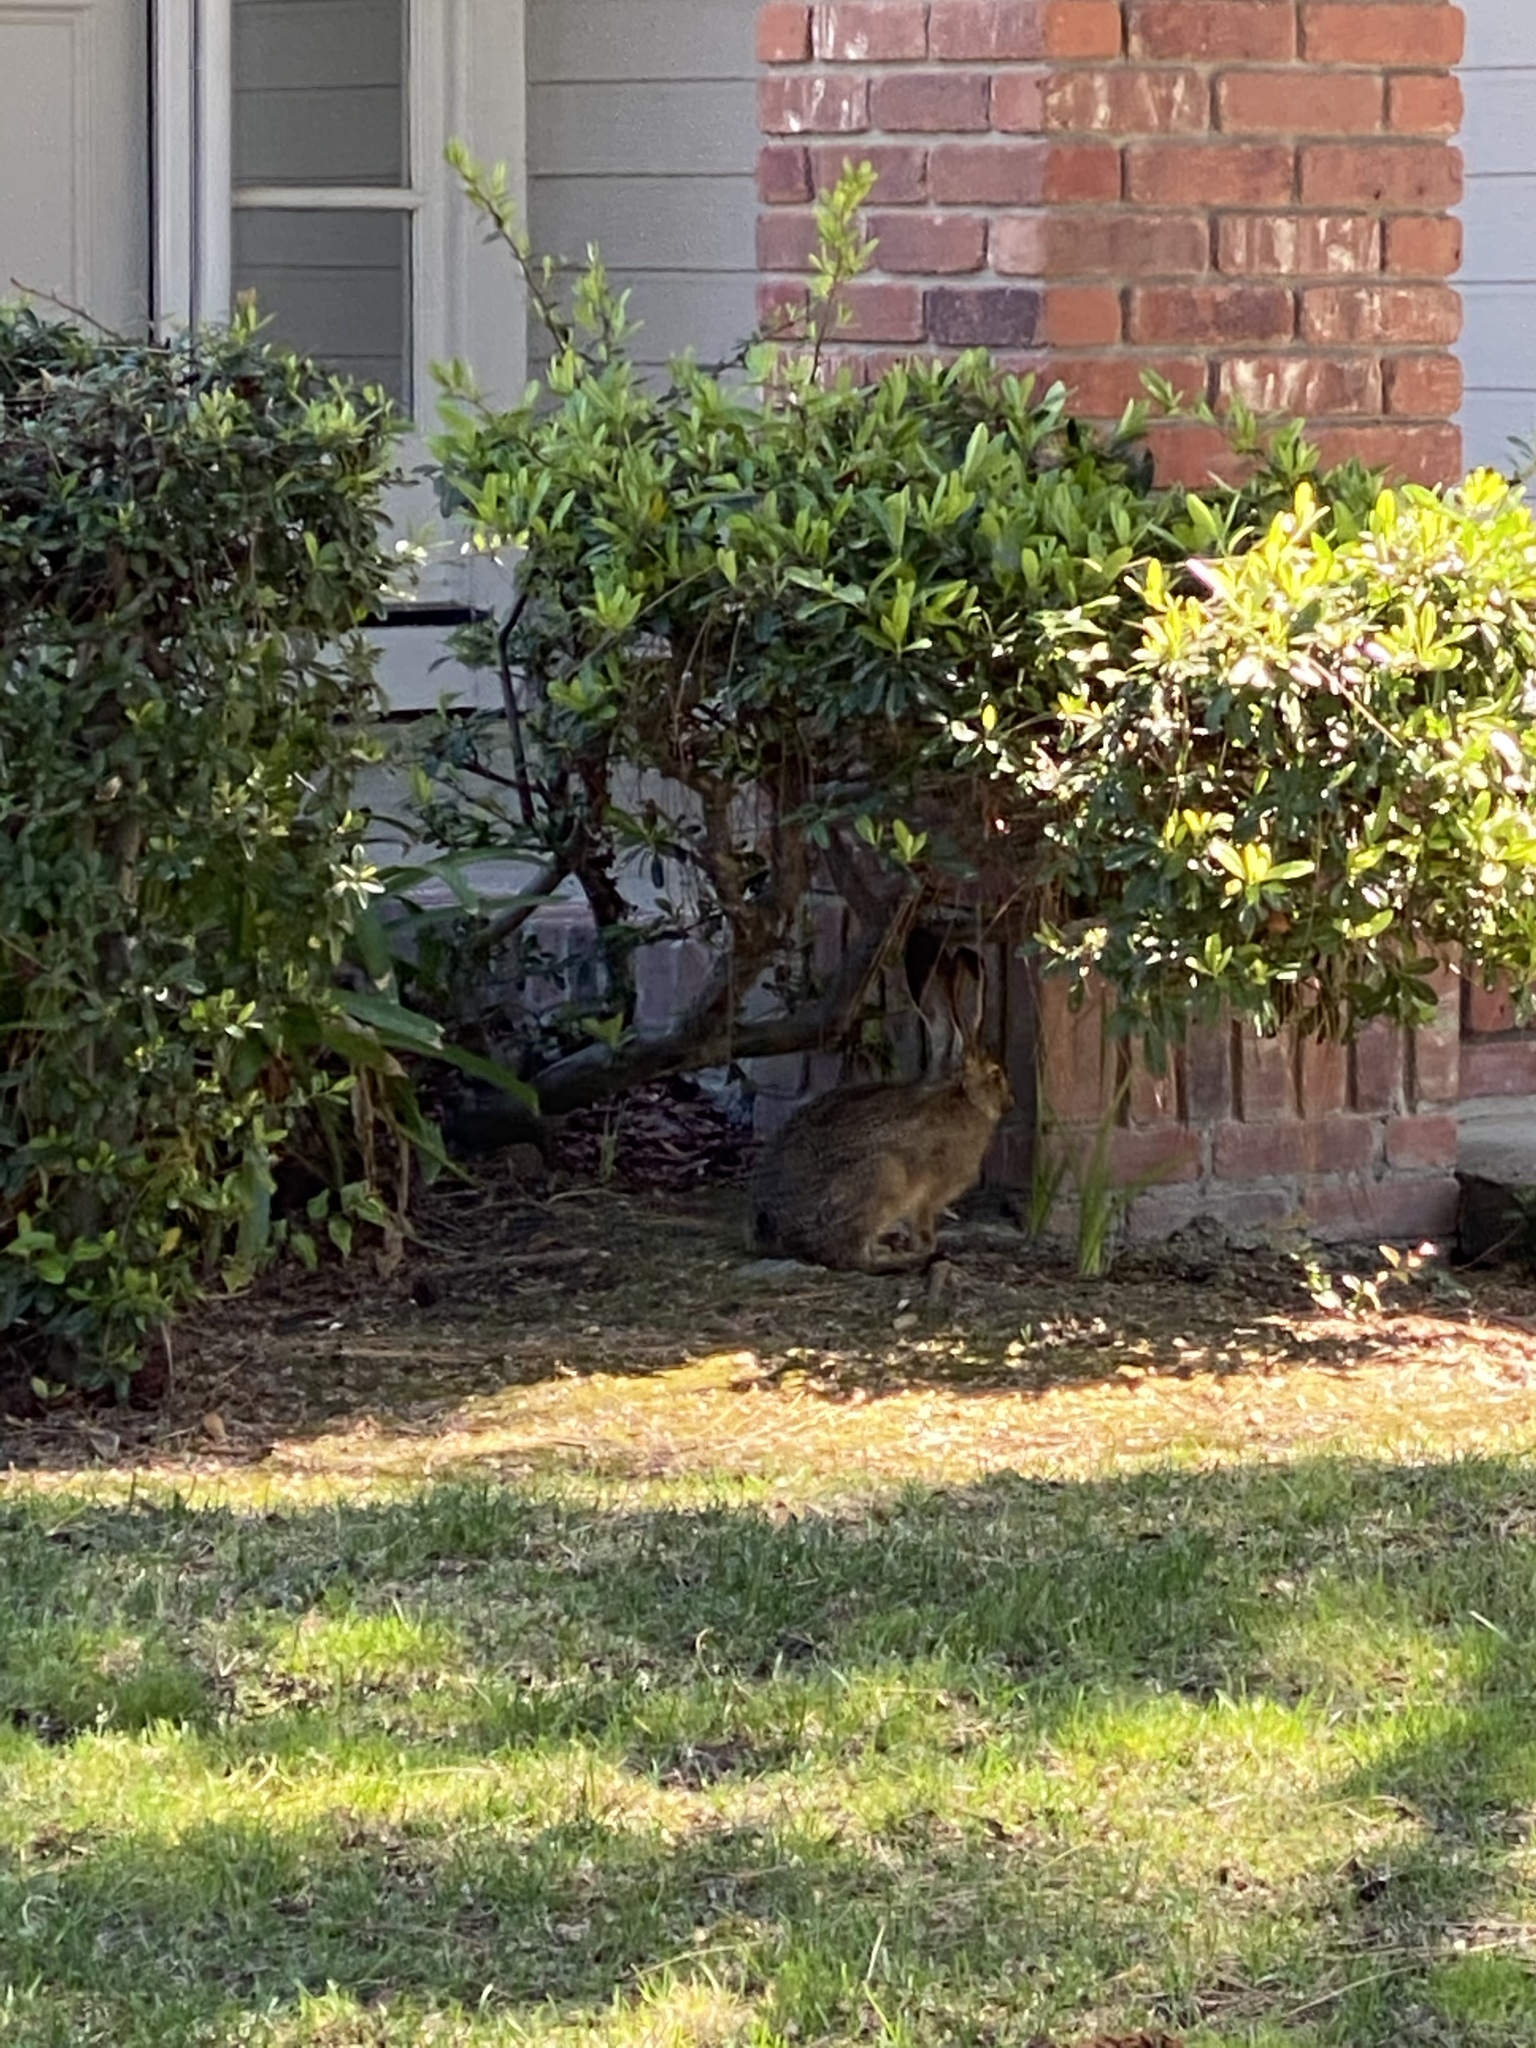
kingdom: Animalia
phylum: Chordata
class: Mammalia
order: Lagomorpha
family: Leporidae
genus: Lepus
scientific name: Lepus californicus
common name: Black-tailed jackrabbit
